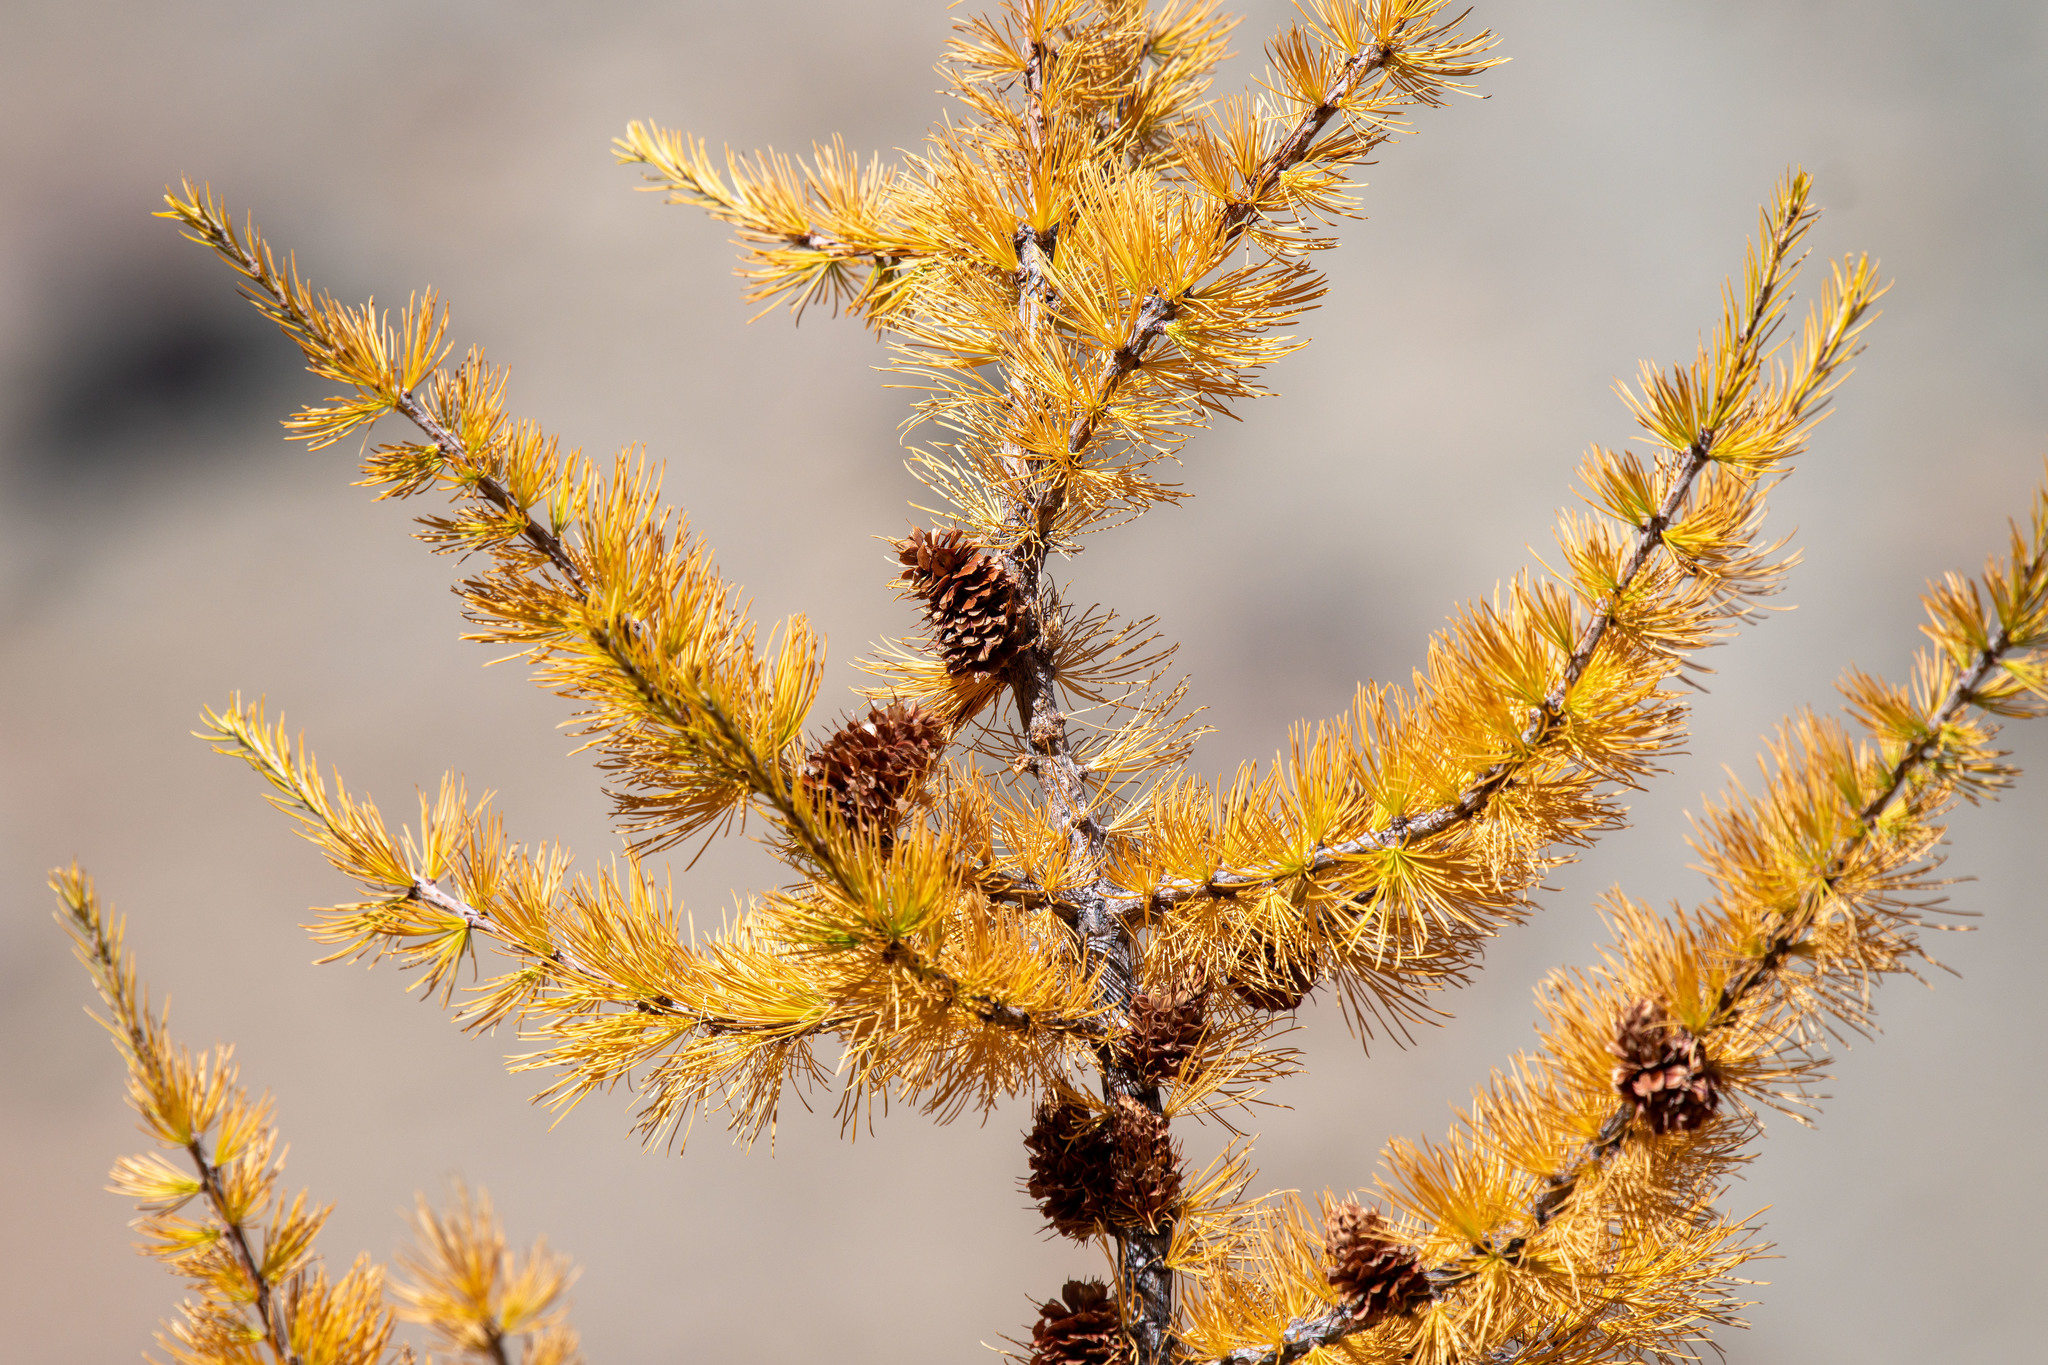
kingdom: Plantae
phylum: Tracheophyta
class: Pinopsida
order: Pinales
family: Pinaceae
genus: Larix
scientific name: Larix lyallii
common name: Alpine larch
